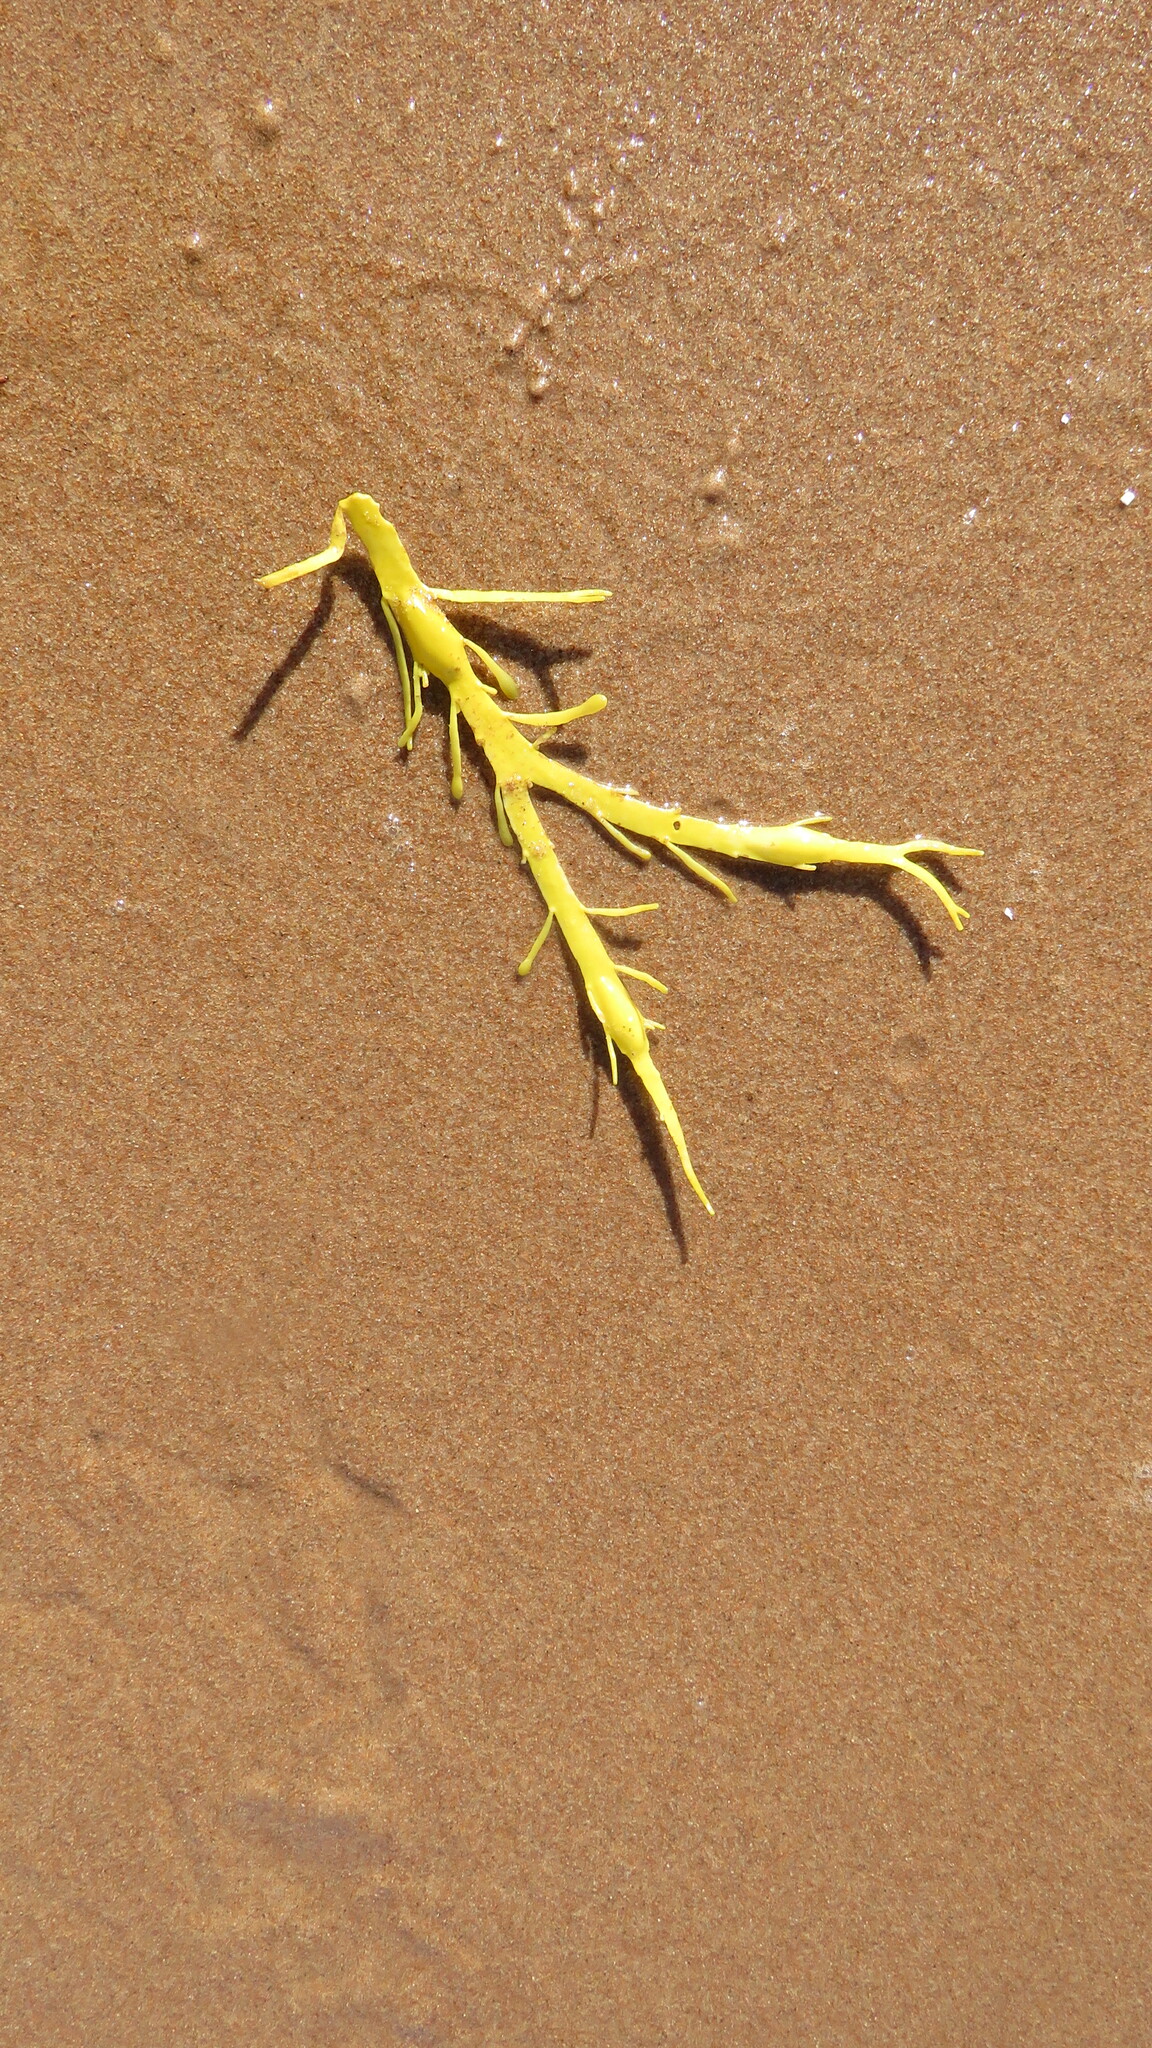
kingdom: Chromista
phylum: Ochrophyta
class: Phaeophyceae
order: Fucales
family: Fucaceae
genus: Ascophyllum
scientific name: Ascophyllum nodosum
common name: Knotted wrack
